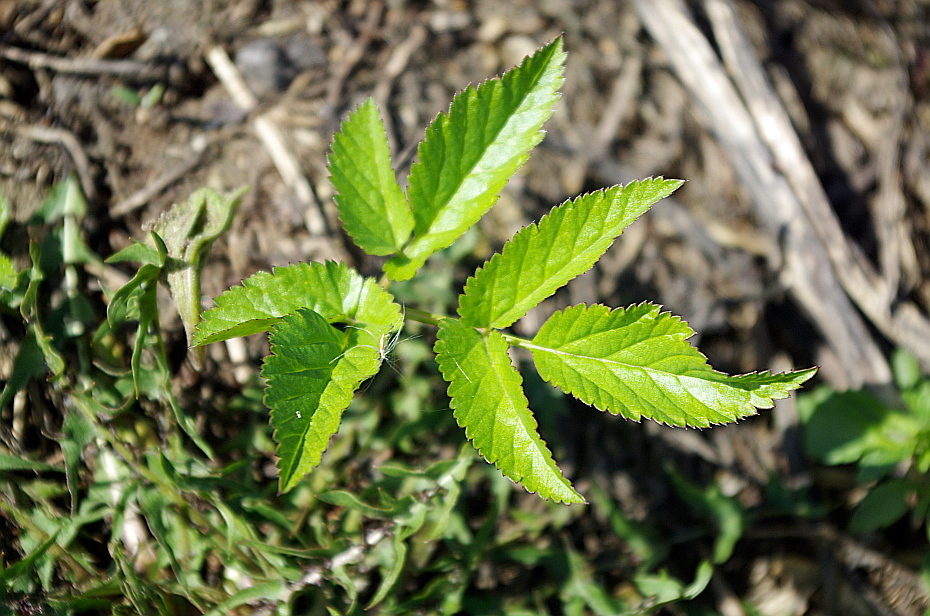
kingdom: Plantae
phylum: Tracheophyta
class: Magnoliopsida
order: Apiales
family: Apiaceae
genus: Aegopodium
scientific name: Aegopodium podagraria
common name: Ground-elder
